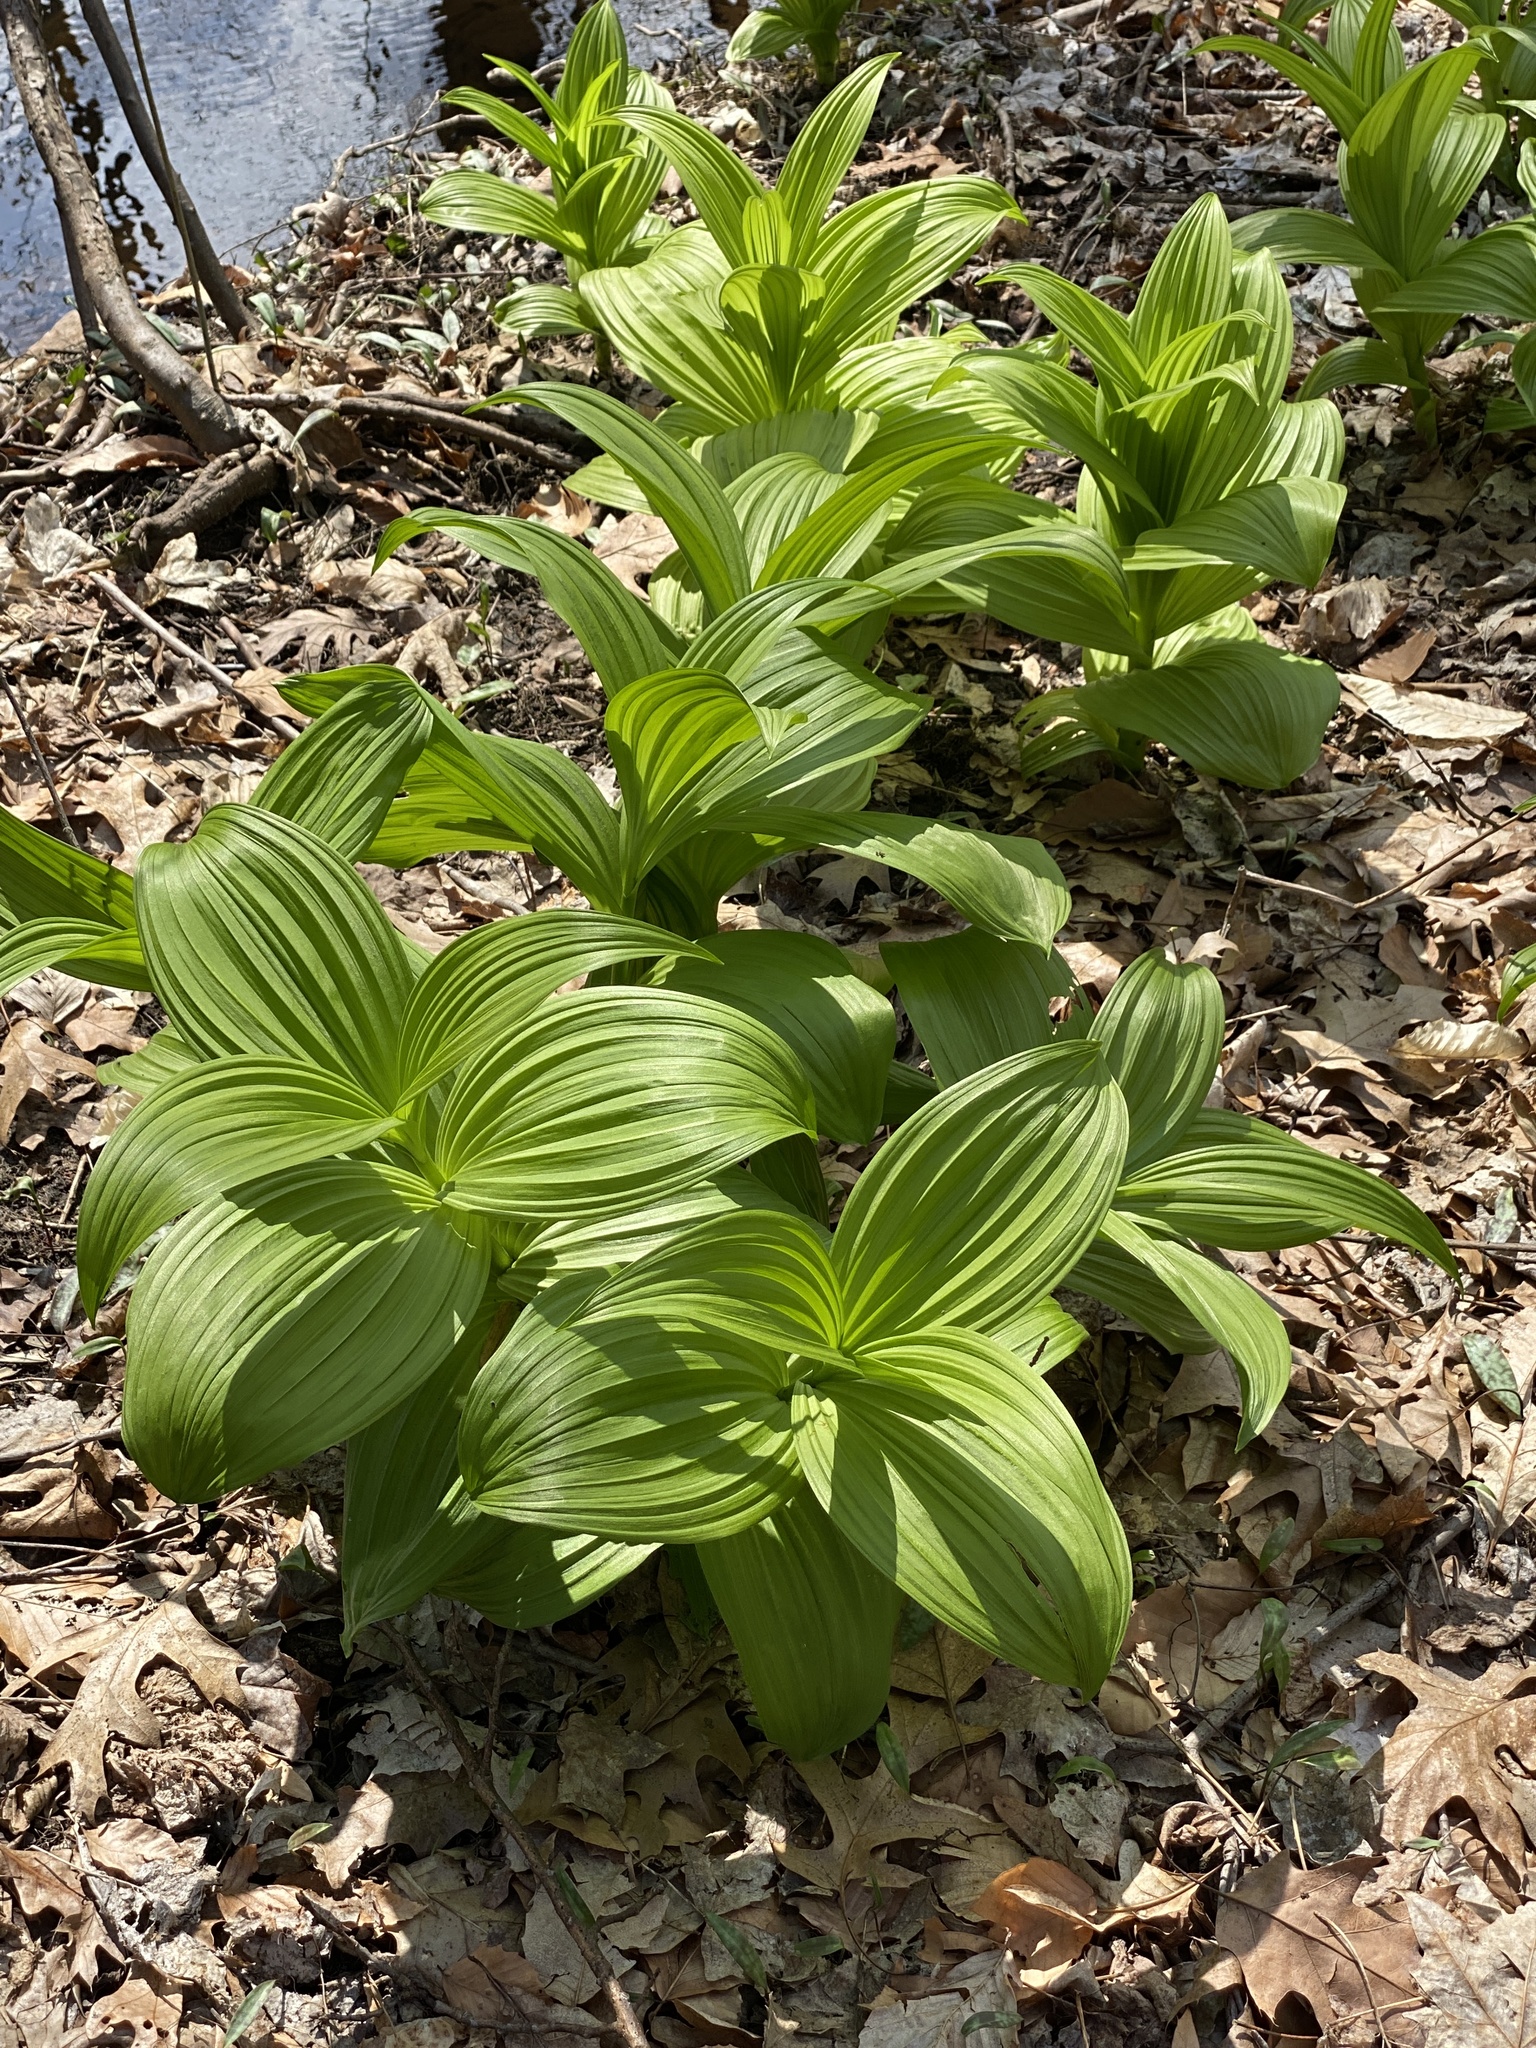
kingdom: Plantae
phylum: Tracheophyta
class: Liliopsida
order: Liliales
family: Melanthiaceae
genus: Veratrum
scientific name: Veratrum viride
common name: American false hellebore
